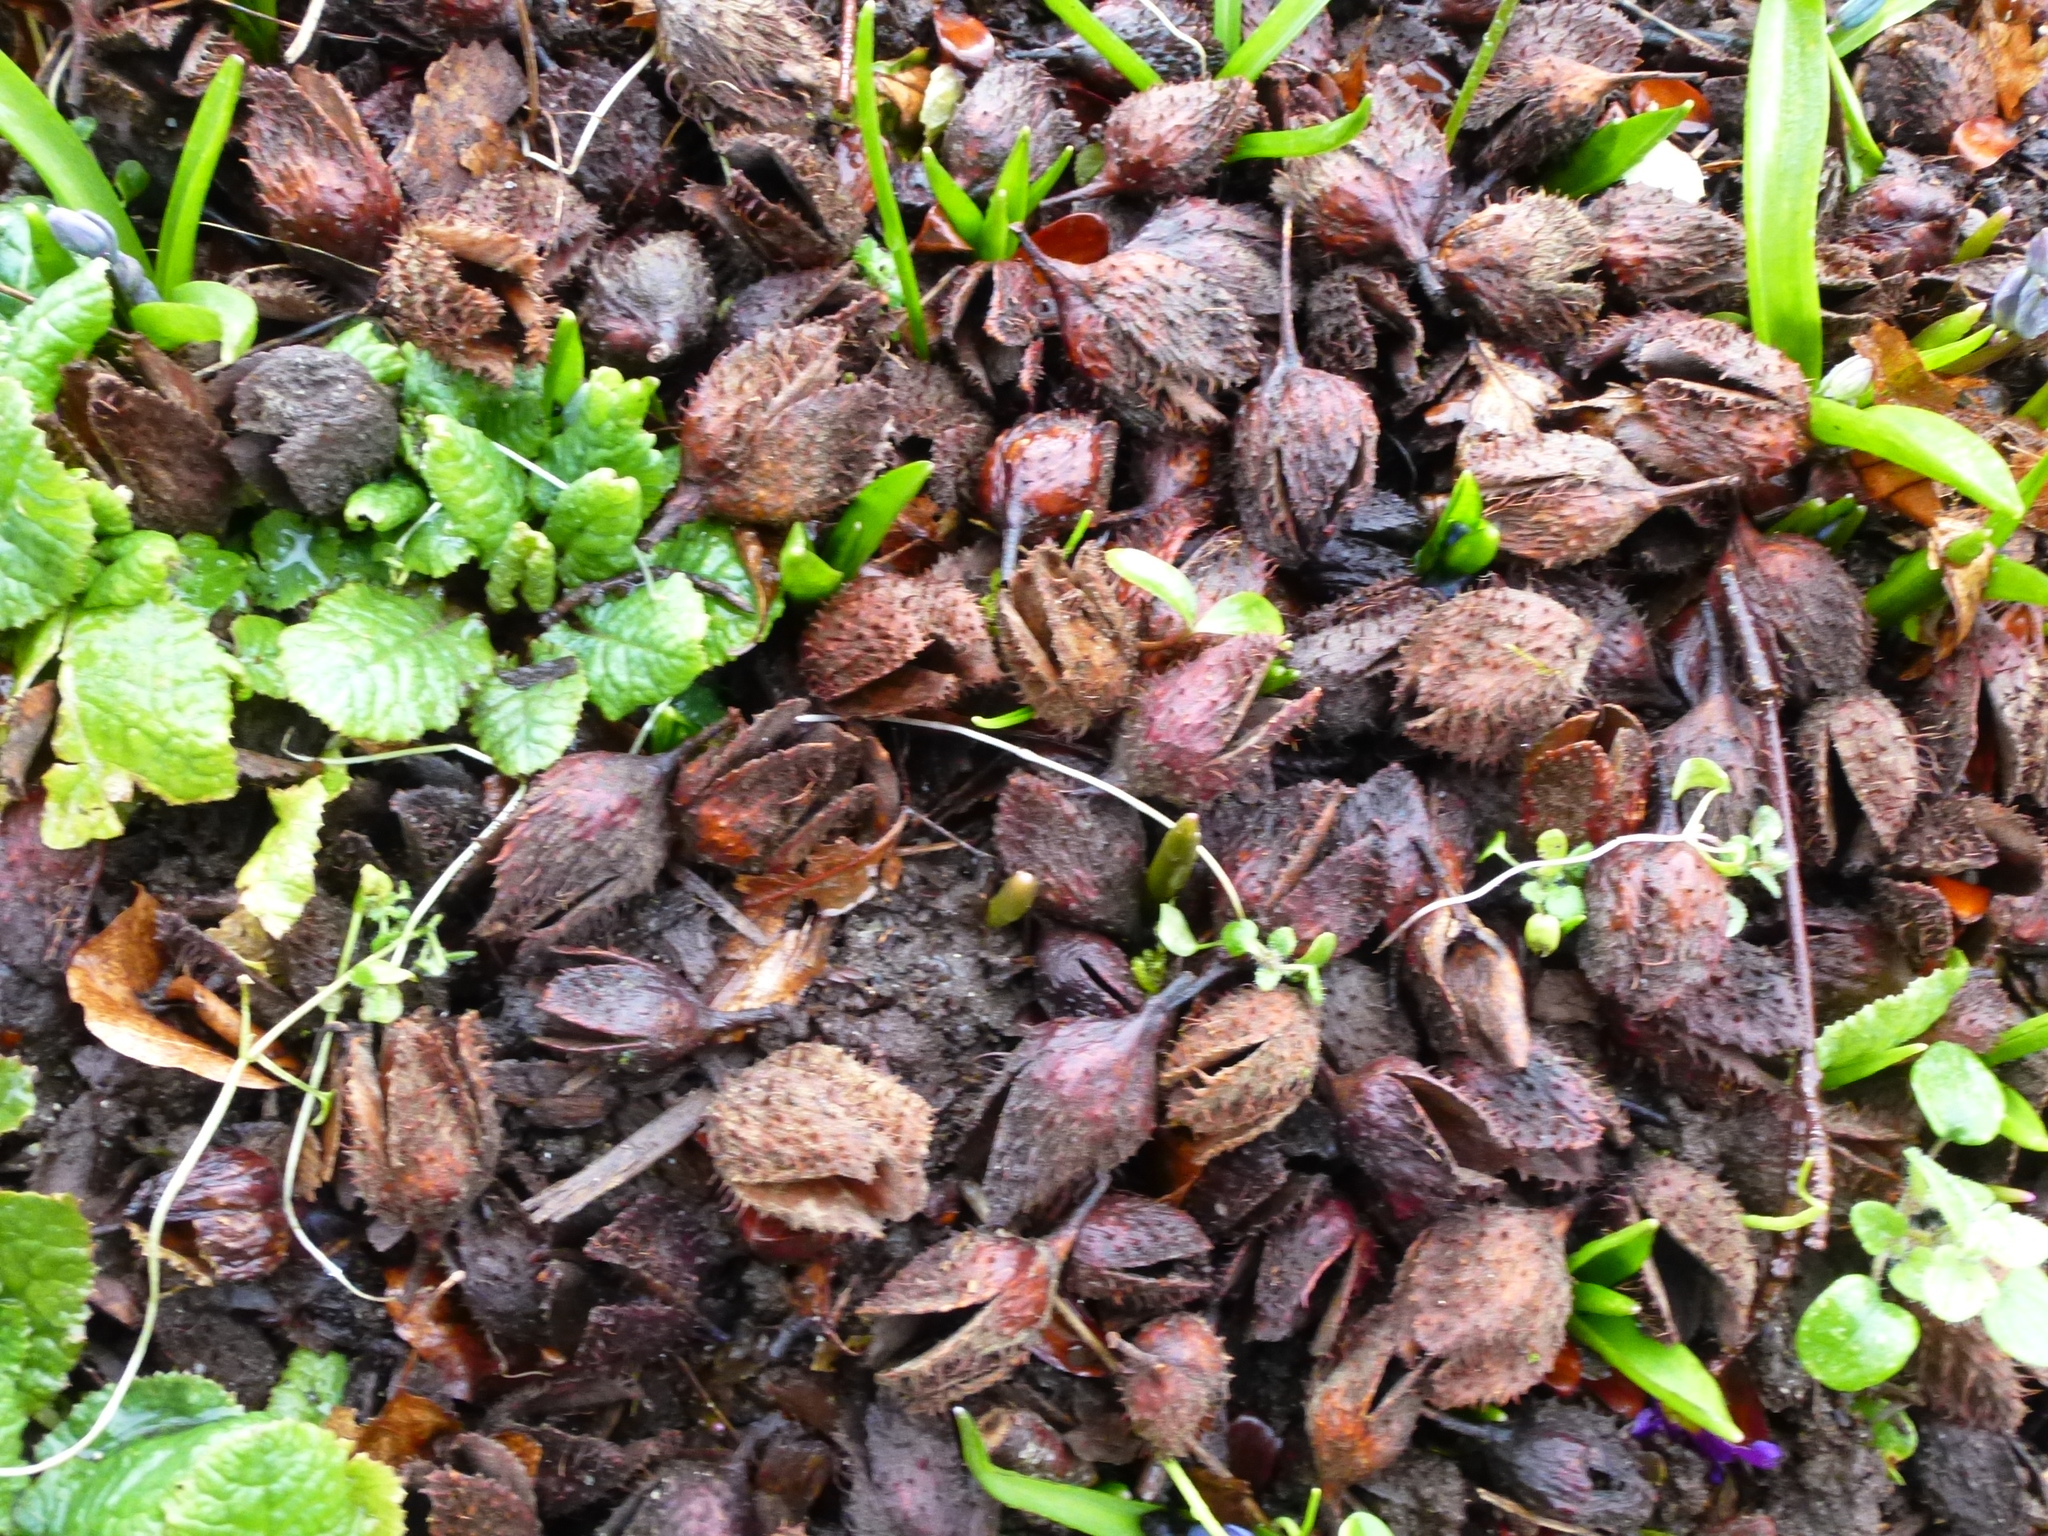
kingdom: Plantae
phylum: Tracheophyta
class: Magnoliopsida
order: Fagales
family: Fagaceae
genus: Fagus
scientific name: Fagus sylvatica
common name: Beech
